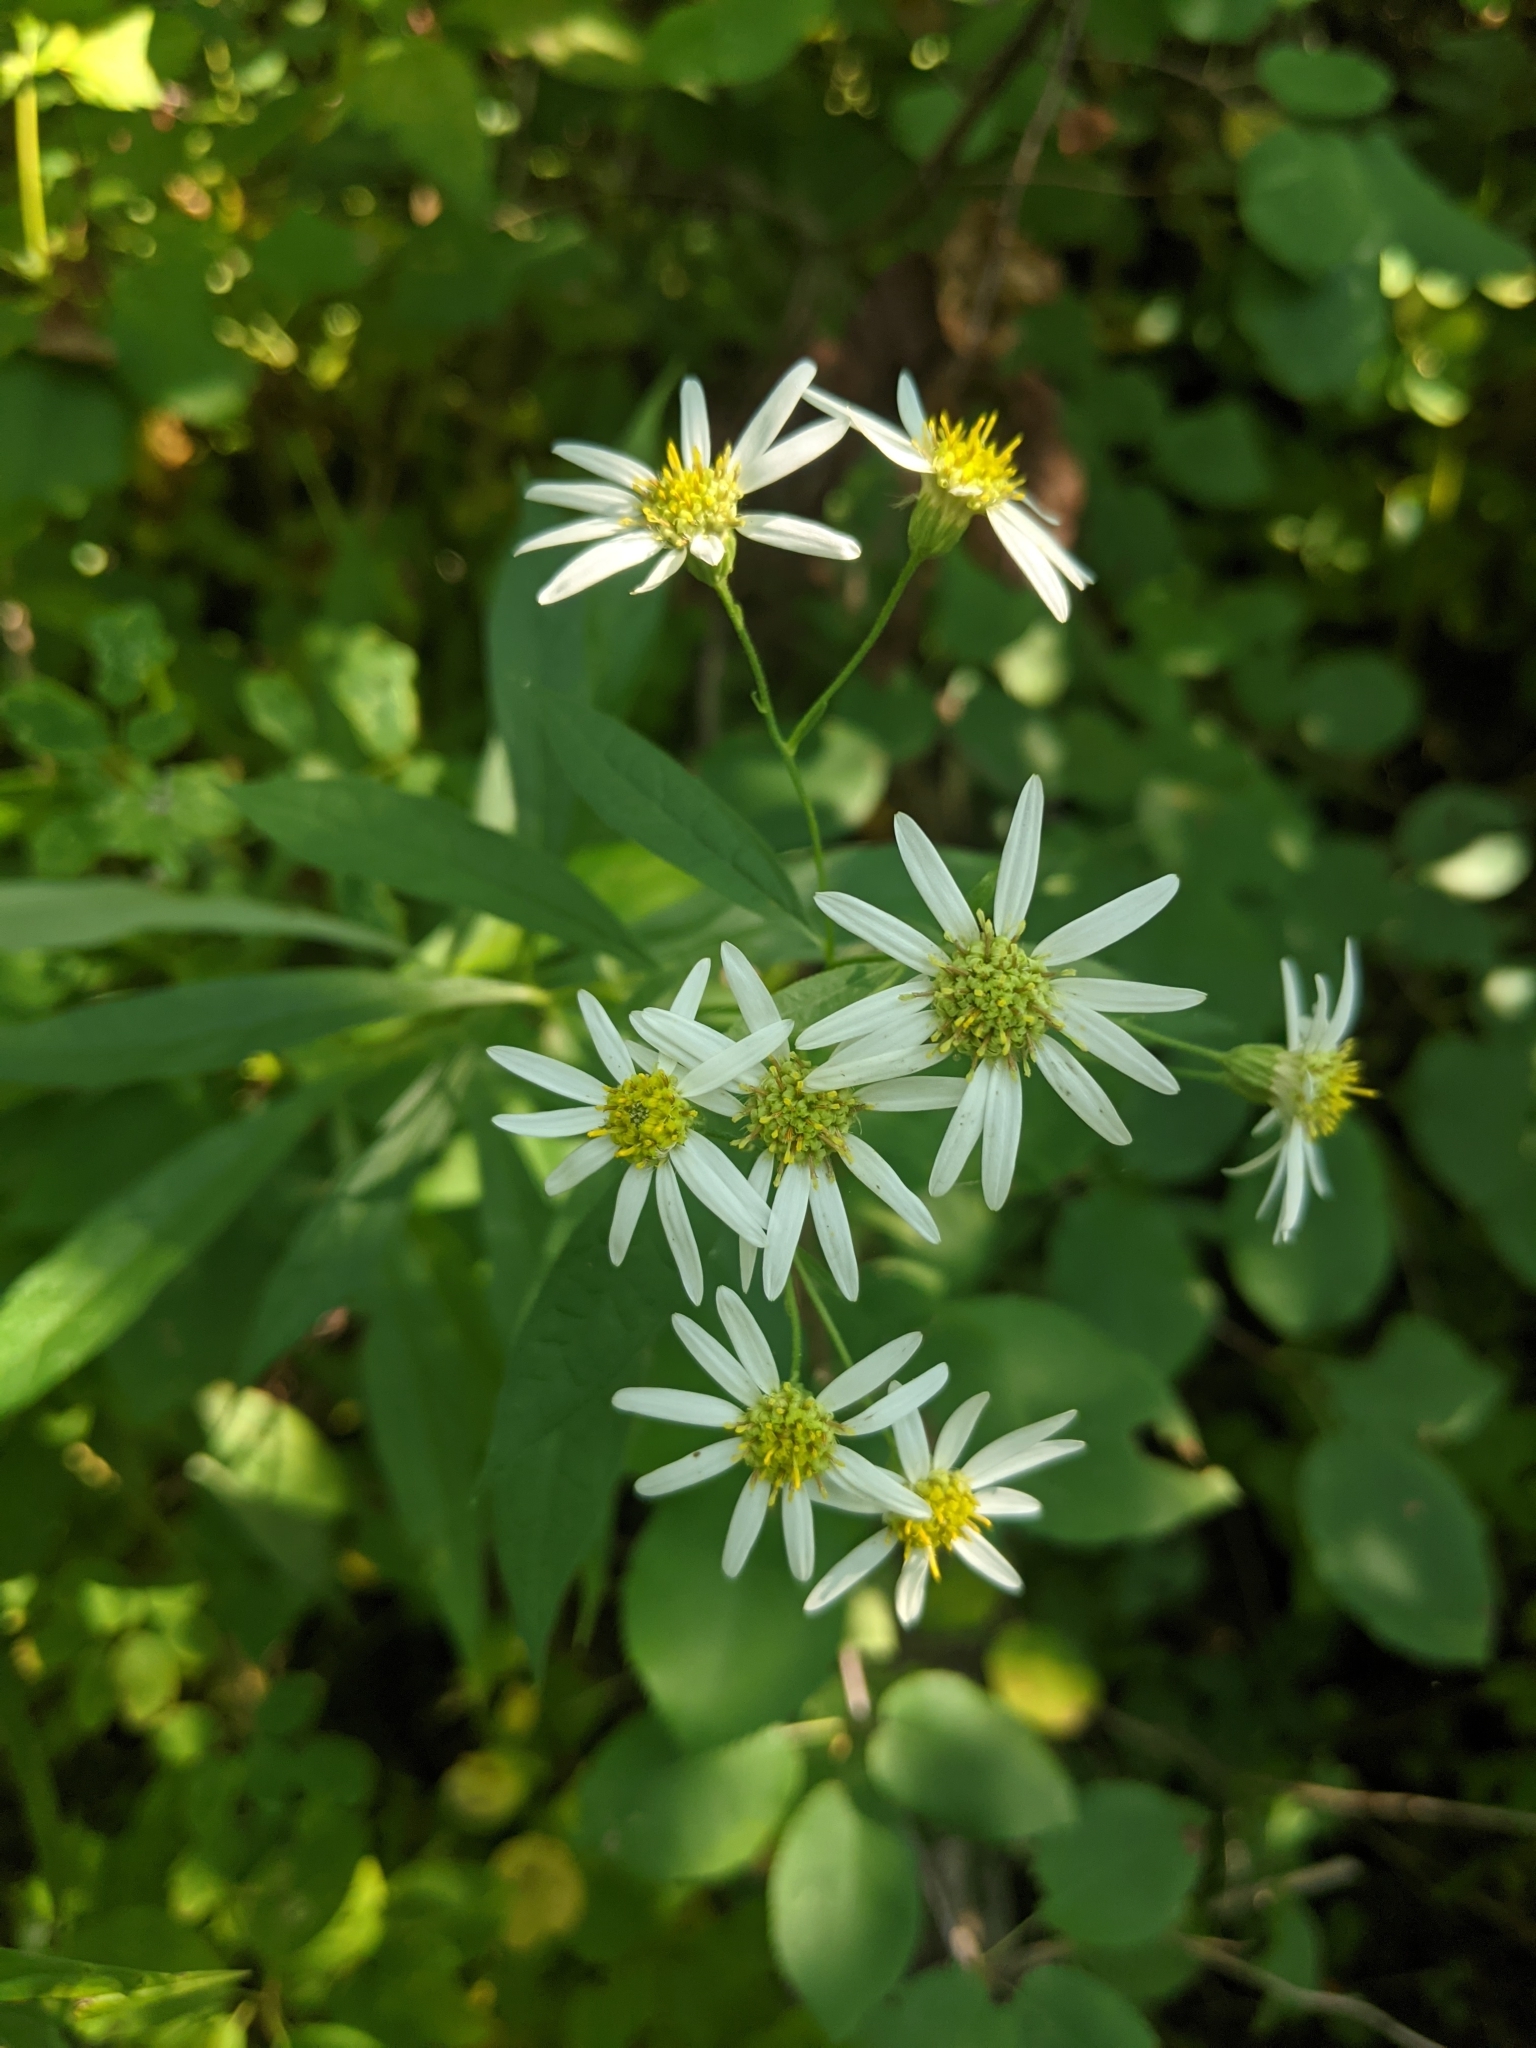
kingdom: Plantae
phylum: Tracheophyta
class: Magnoliopsida
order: Asterales
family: Asteraceae
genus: Doellingeria
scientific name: Doellingeria umbellata
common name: Flat-top white aster
